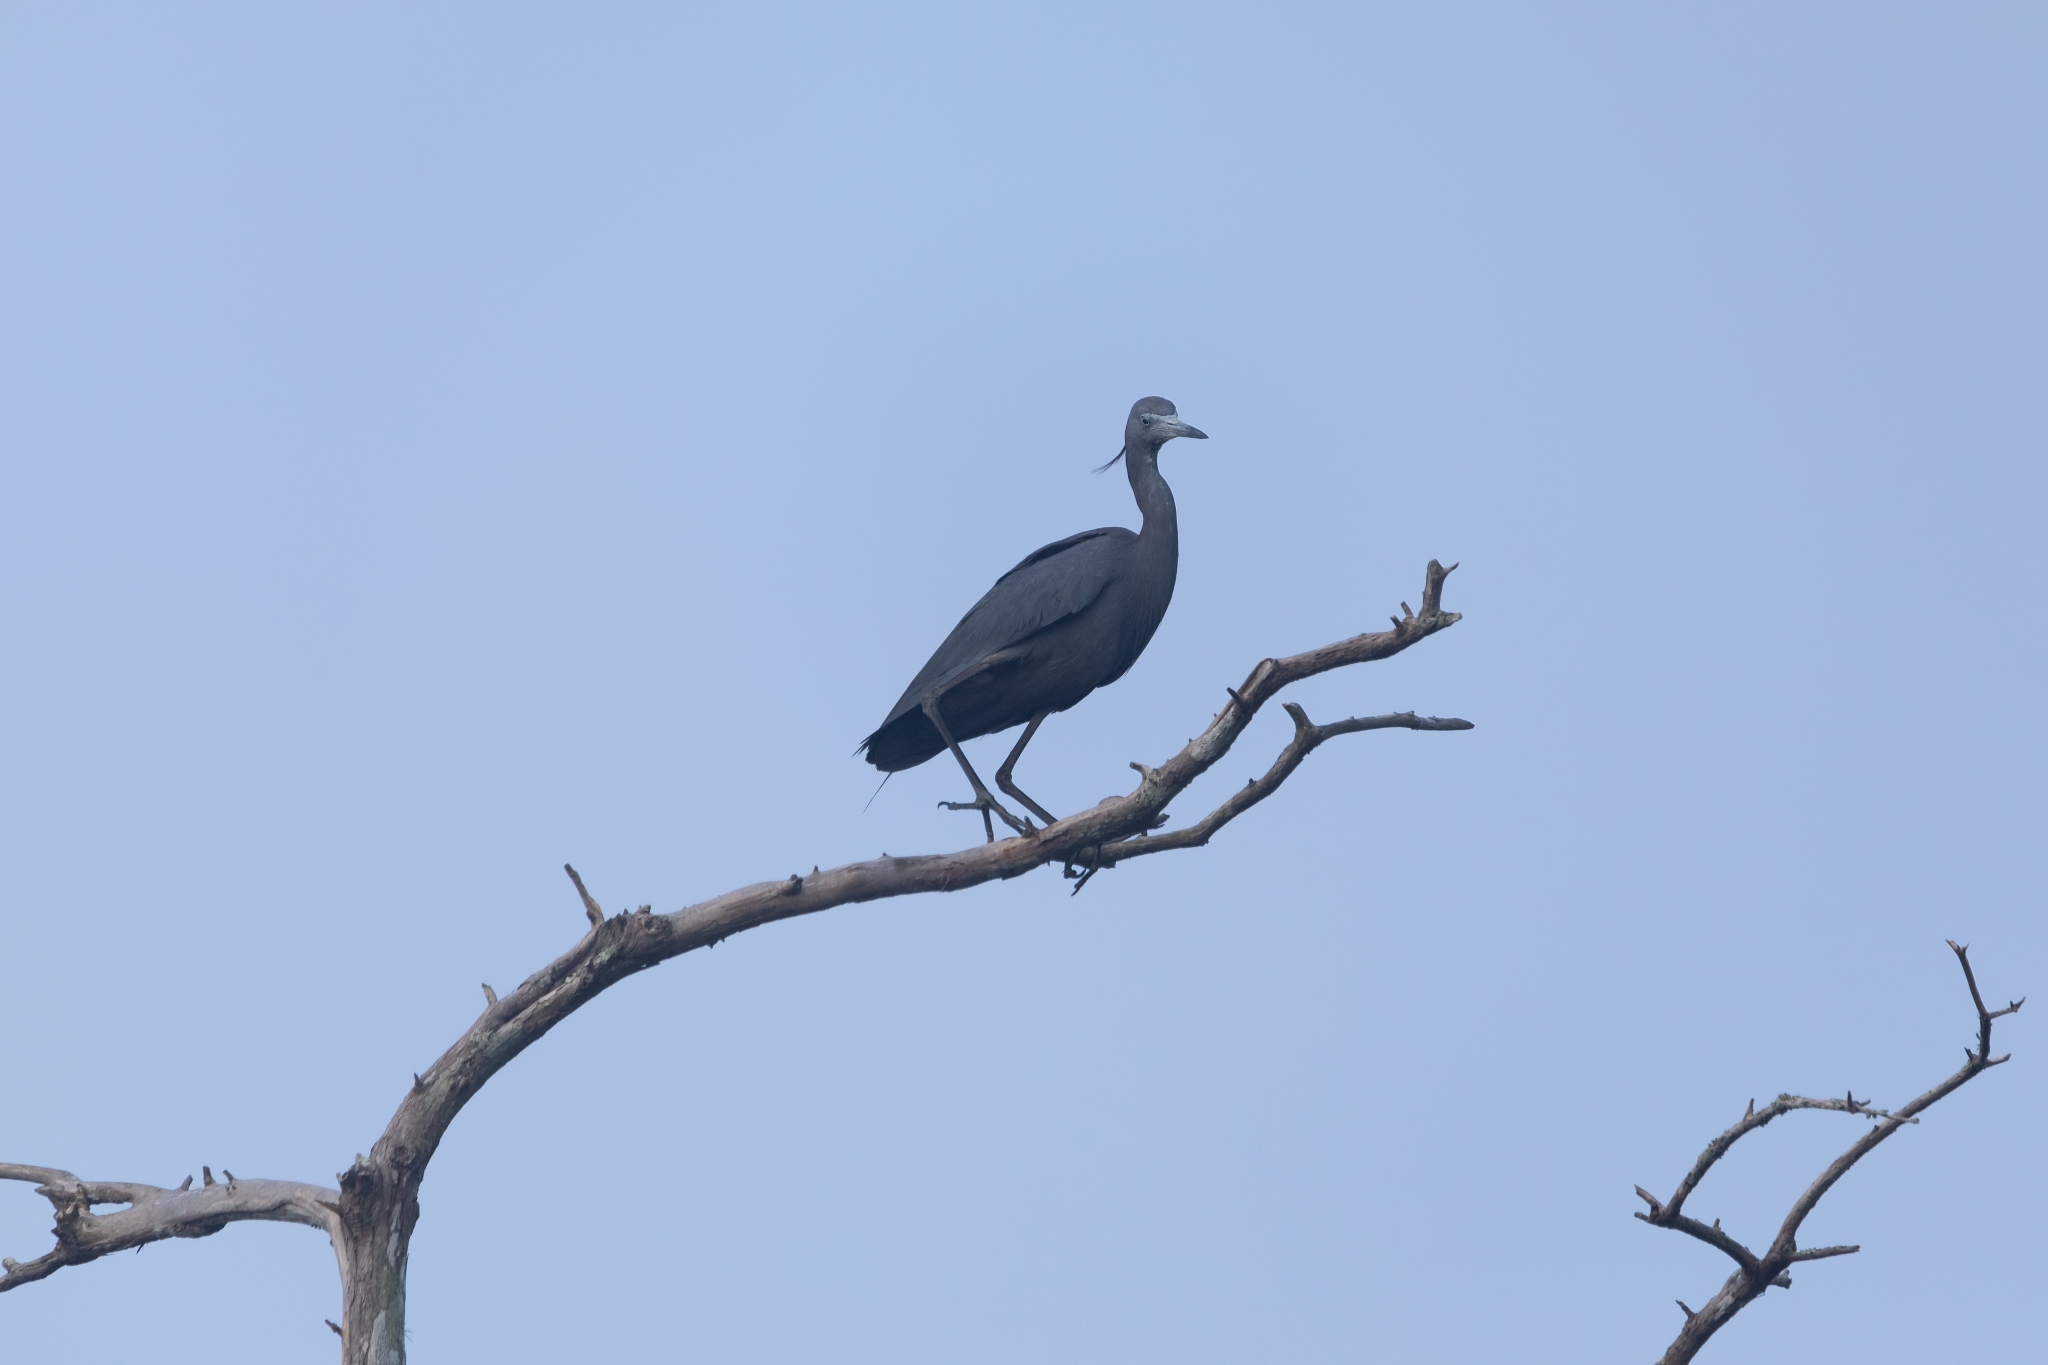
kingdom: Animalia
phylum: Chordata
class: Aves
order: Pelecaniformes
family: Ardeidae
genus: Egretta
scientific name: Egretta caerulea
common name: Little blue heron
